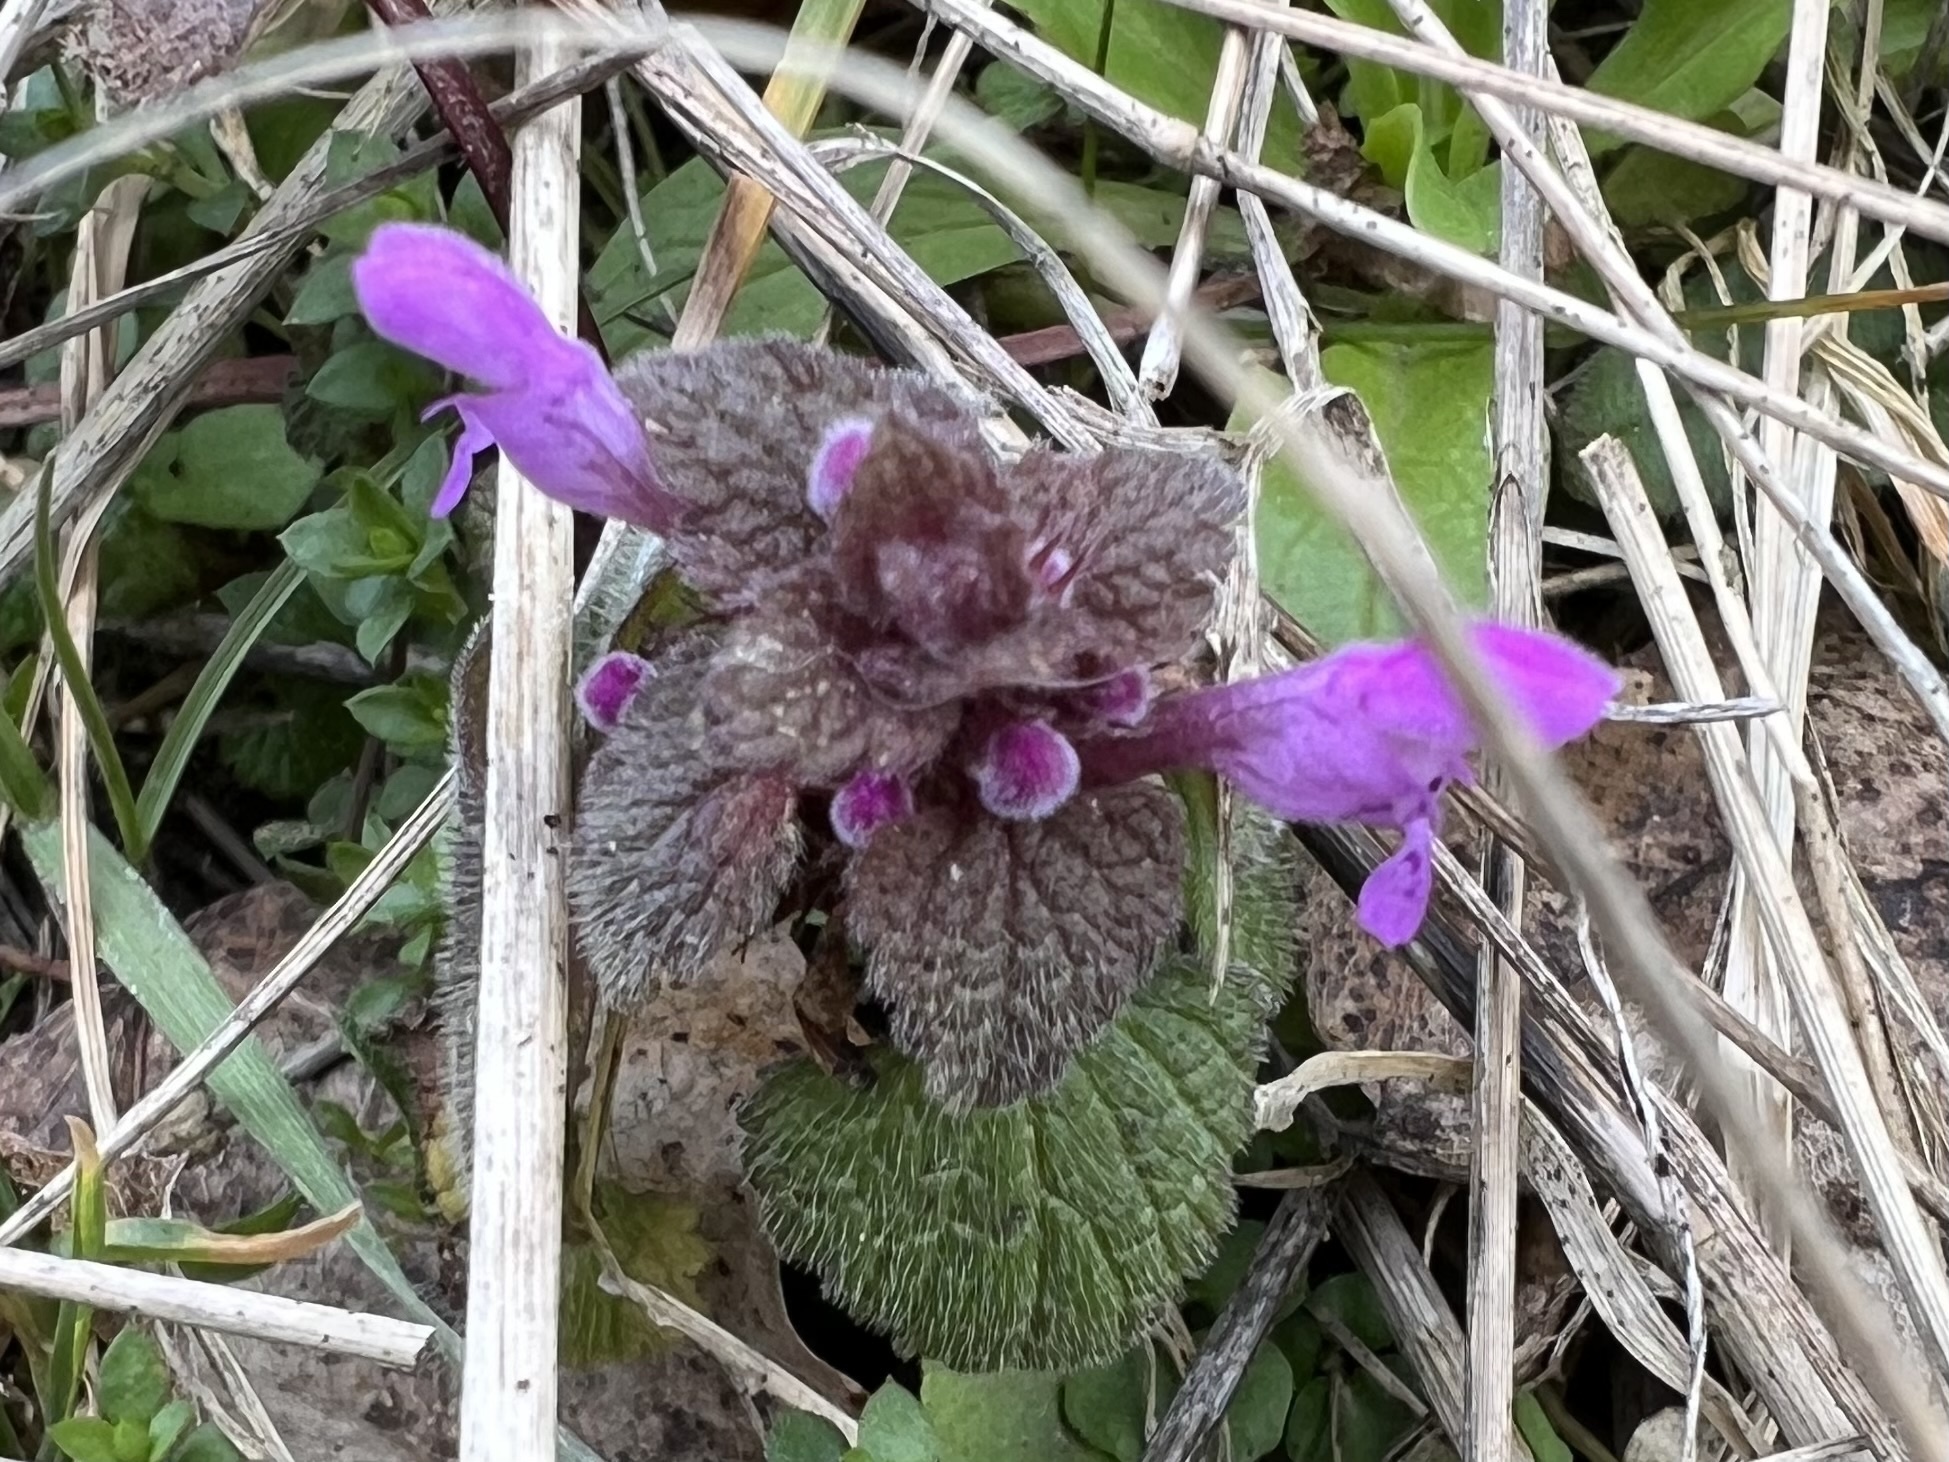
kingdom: Plantae
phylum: Tracheophyta
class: Magnoliopsida
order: Lamiales
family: Lamiaceae
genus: Lamium
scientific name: Lamium purpureum
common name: Red dead-nettle
